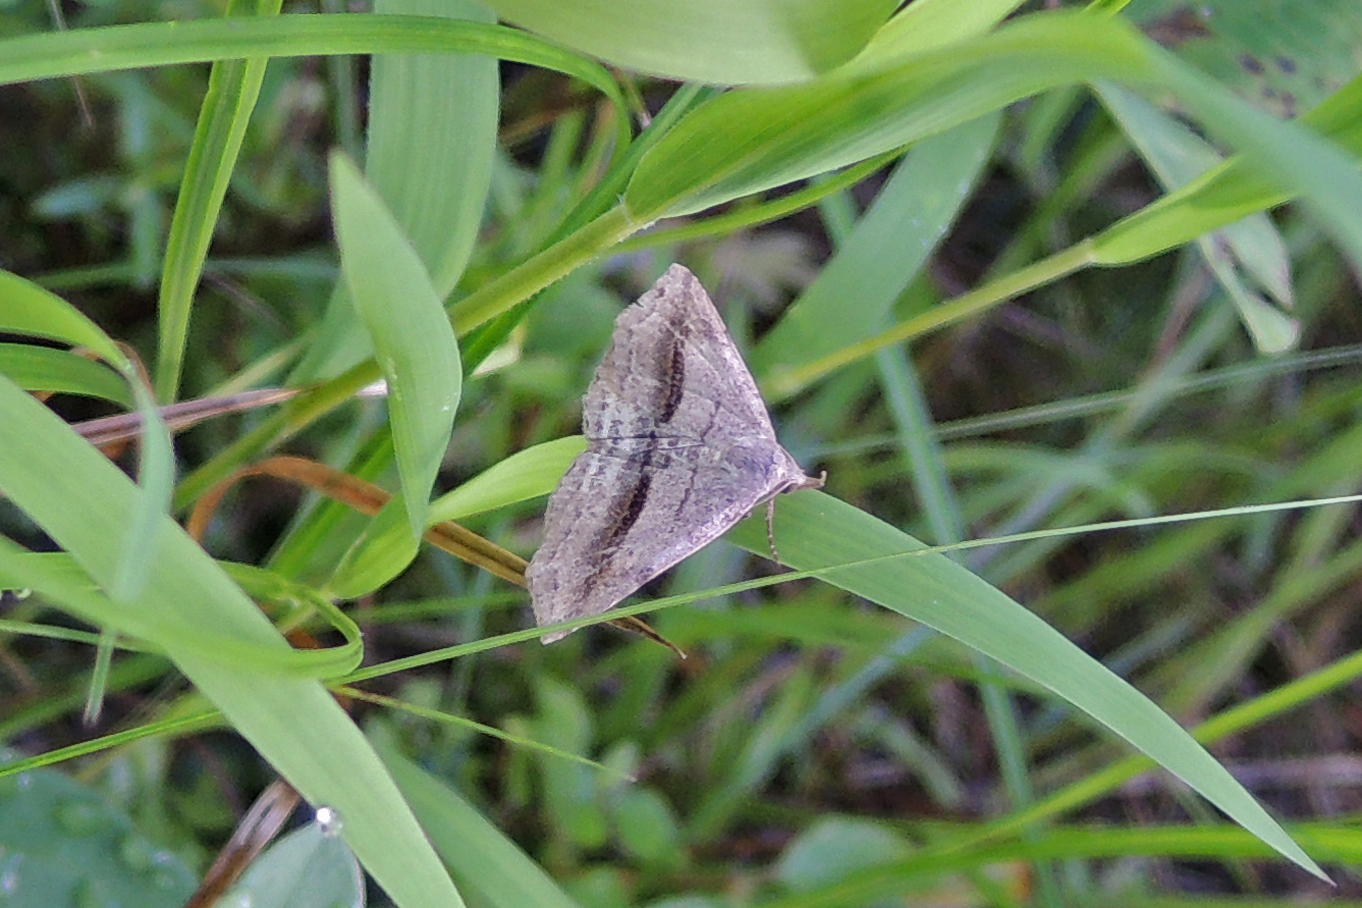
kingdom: Animalia
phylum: Arthropoda
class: Insecta
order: Lepidoptera
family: Erebidae
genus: Spargaloma
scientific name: Spargaloma perditalis
